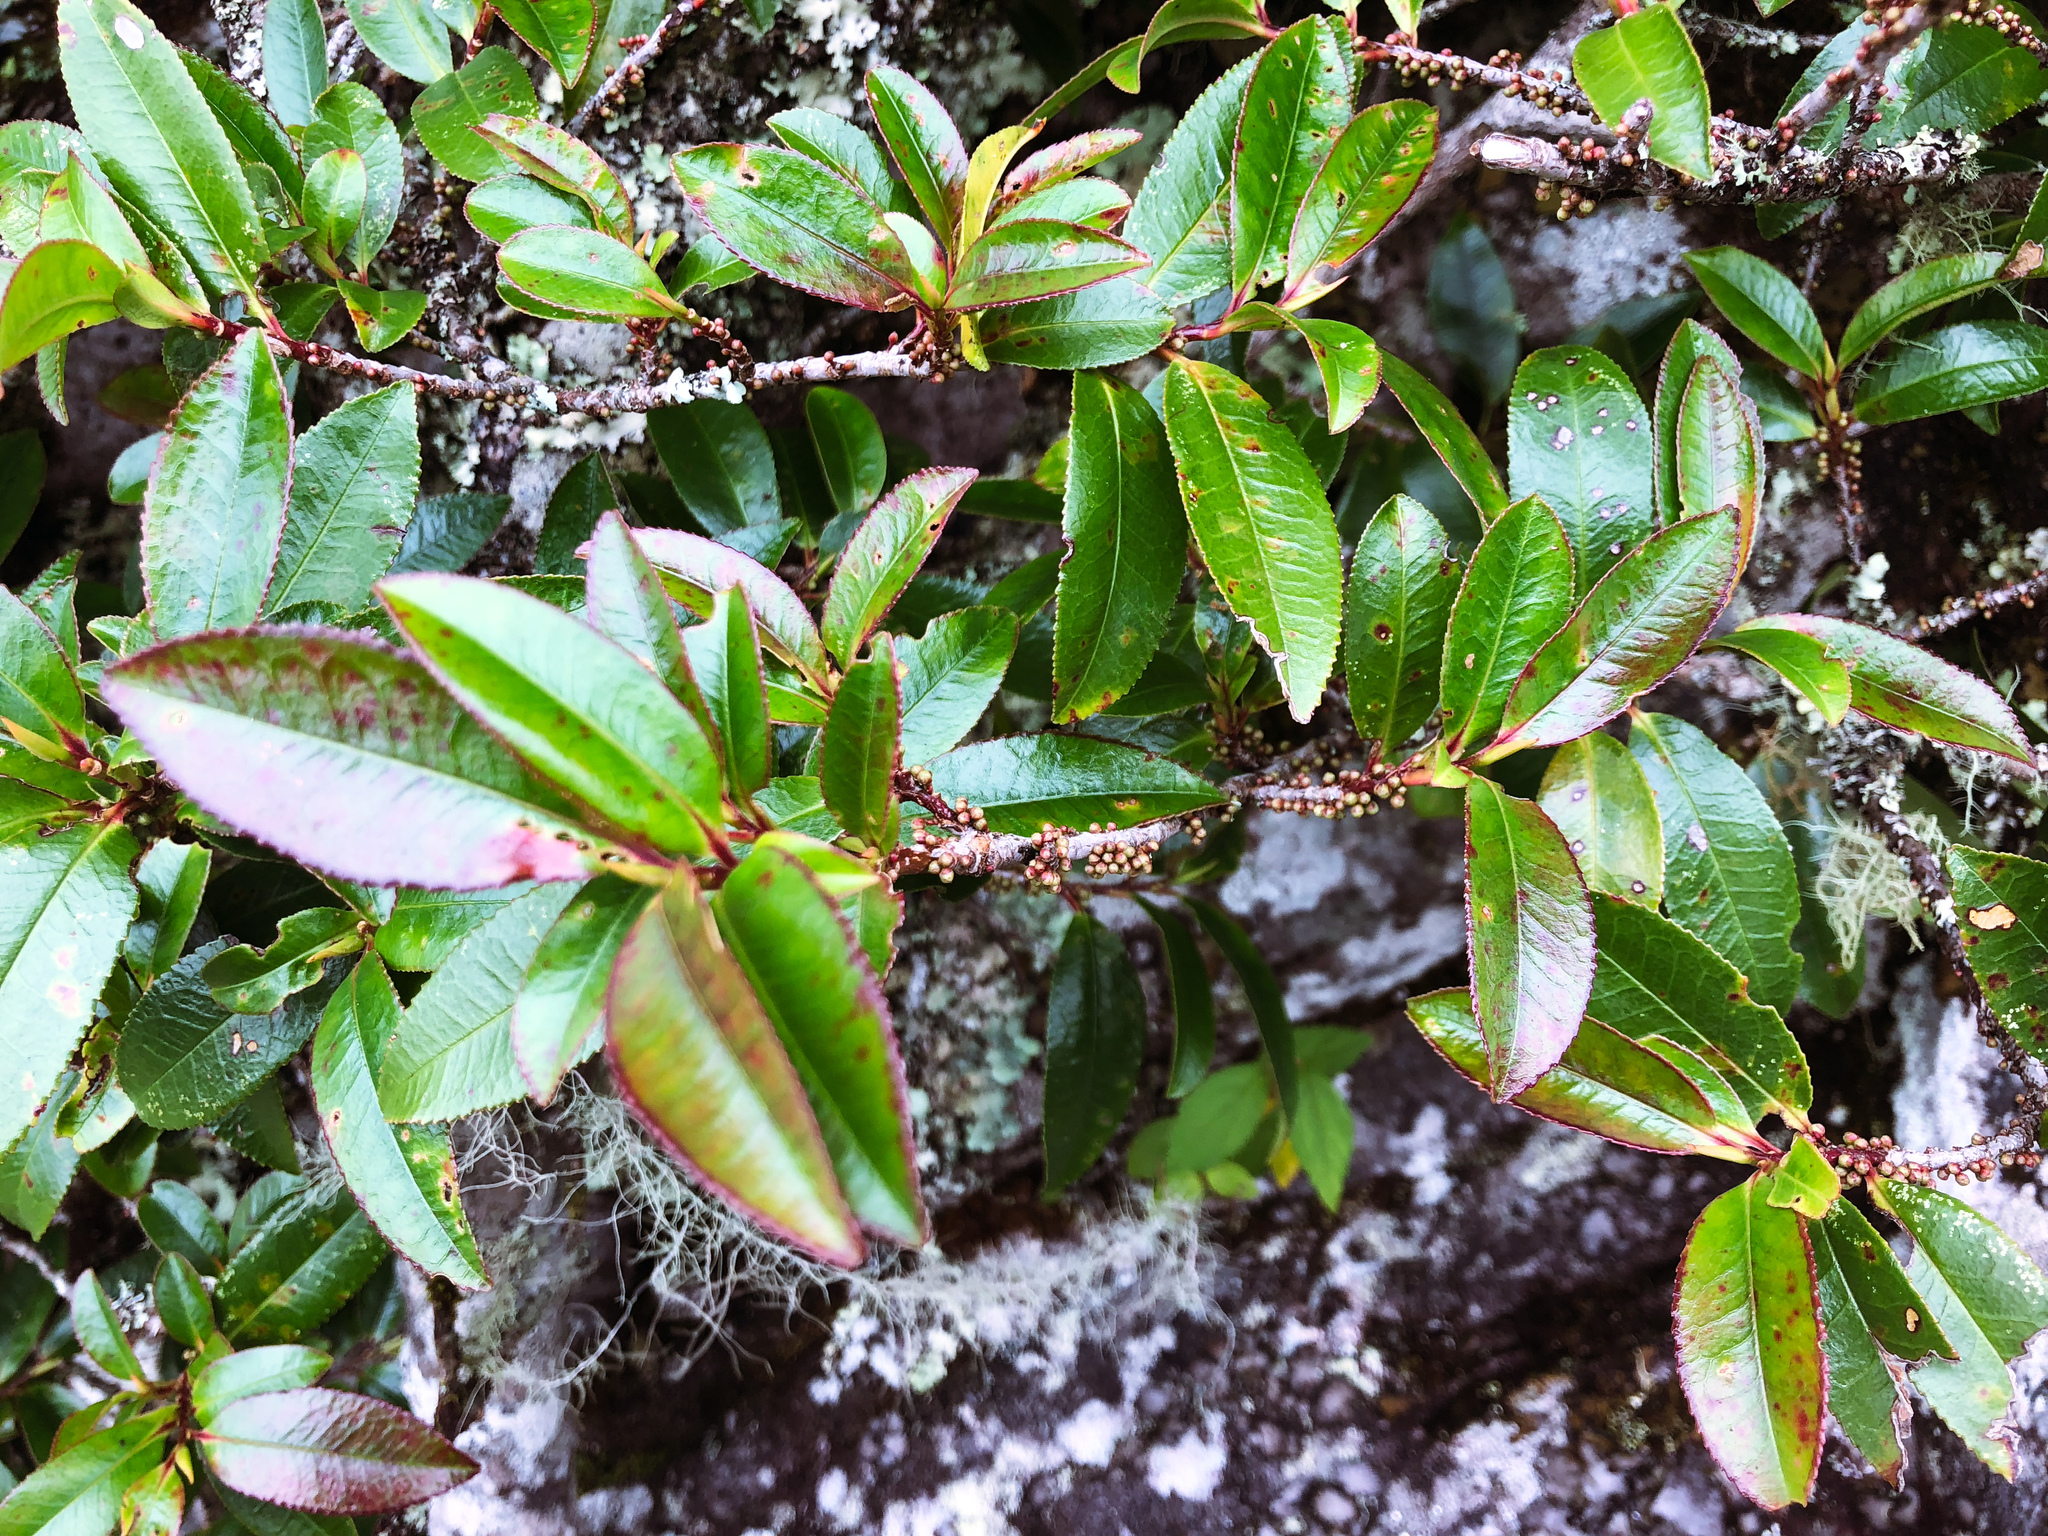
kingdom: Plantae
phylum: Tracheophyta
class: Magnoliopsida
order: Ericales
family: Pentaphylacaceae
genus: Eurya
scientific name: Eurya glaberrima
